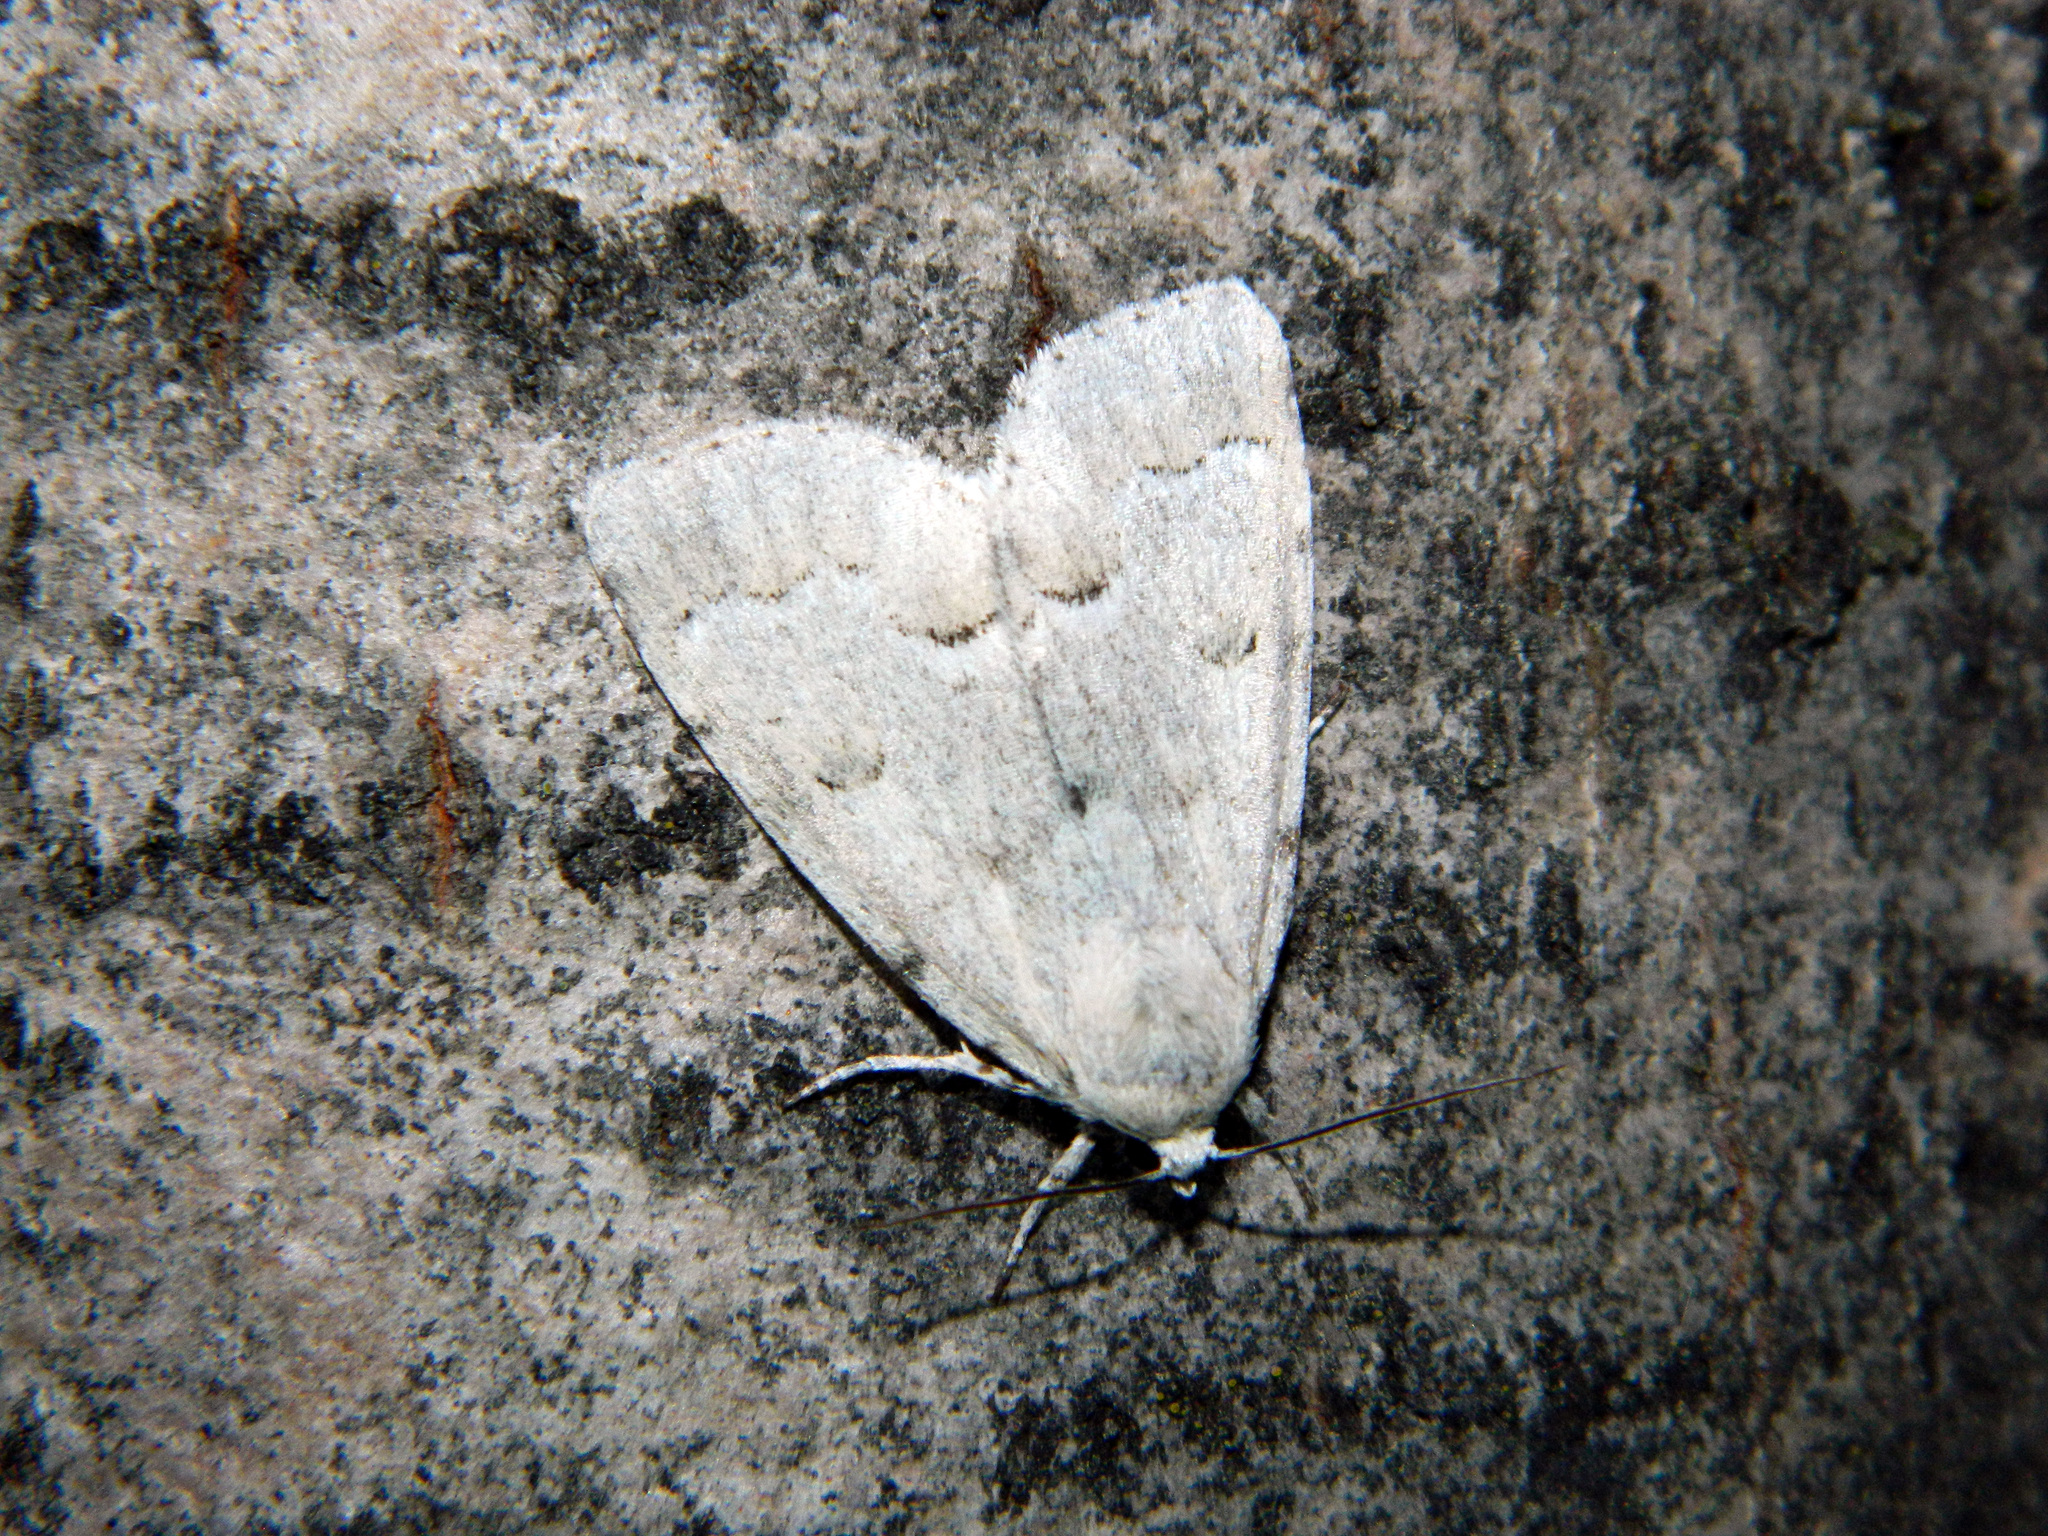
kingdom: Animalia
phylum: Arthropoda
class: Insecta
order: Lepidoptera
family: Noctuidae
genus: Acronicta
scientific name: Acronicta innotata
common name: Unmarked dagger
